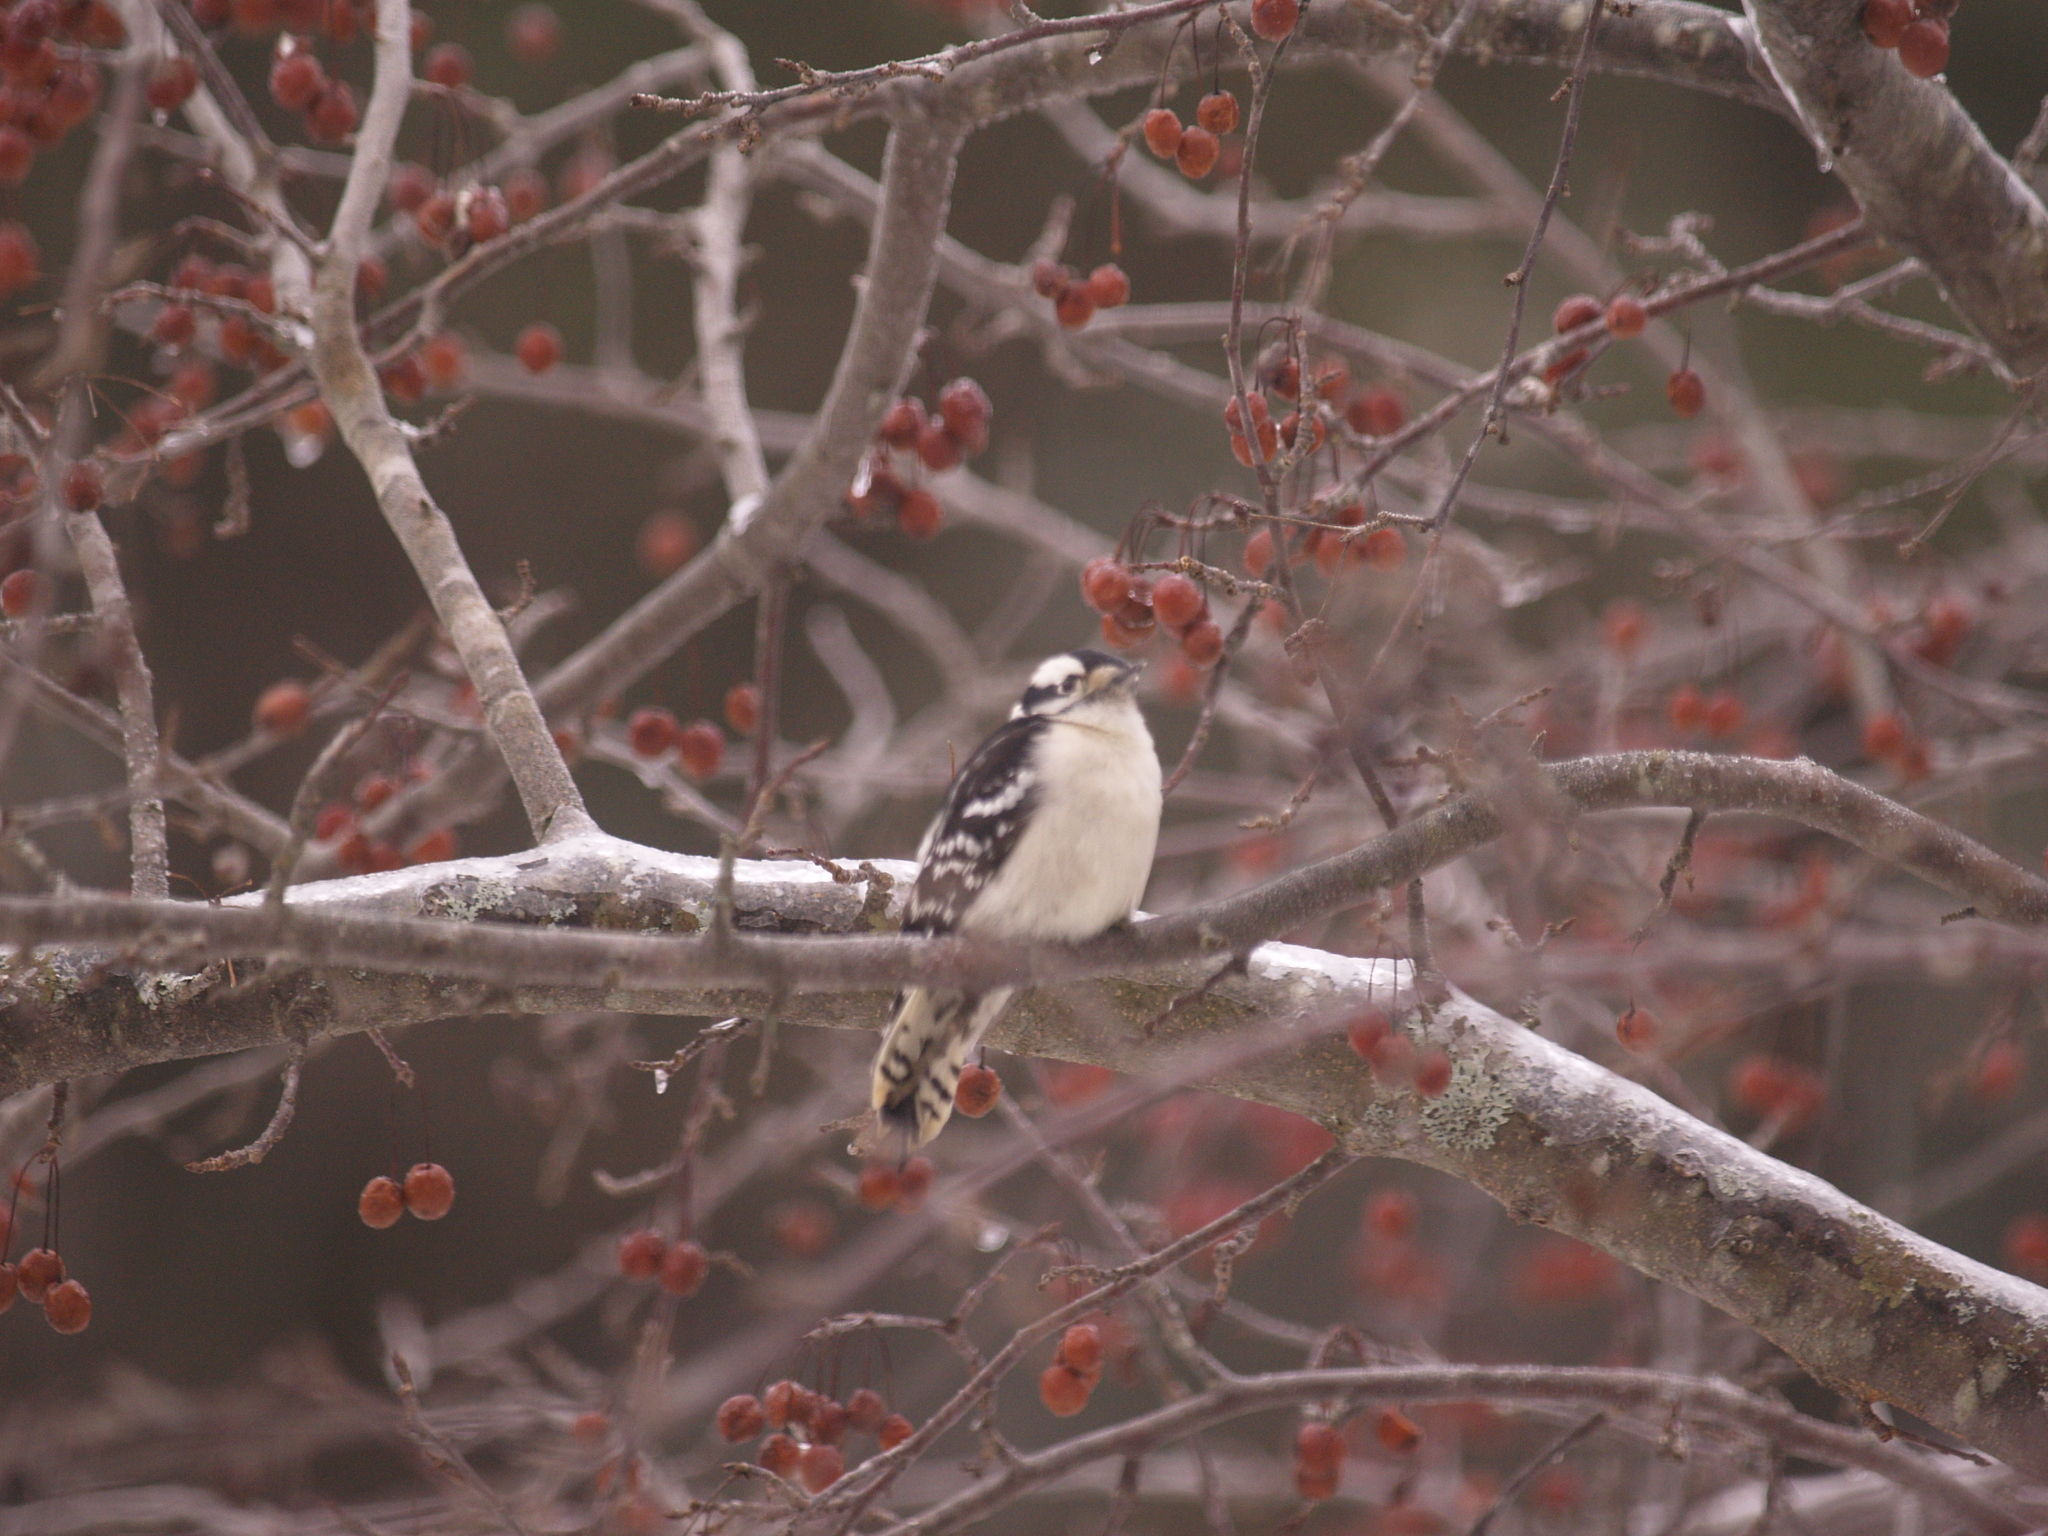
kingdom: Animalia
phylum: Chordata
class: Aves
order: Piciformes
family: Picidae
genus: Dryobates
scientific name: Dryobates pubescens
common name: Downy woodpecker
